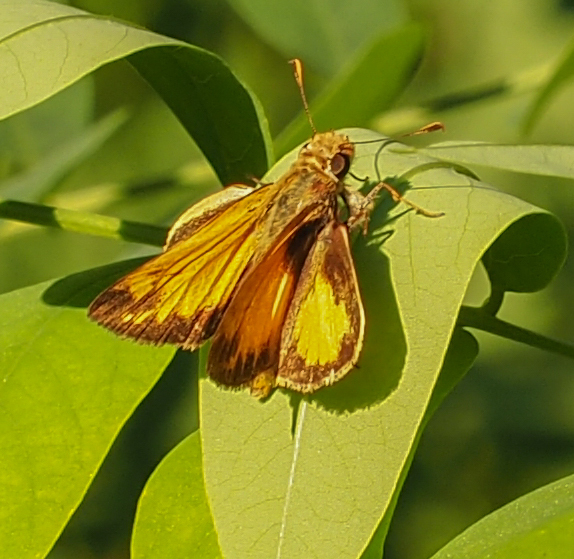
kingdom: Animalia
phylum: Arthropoda
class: Insecta
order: Lepidoptera
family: Hesperiidae
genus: Lon
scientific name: Lon zabulon
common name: Zabulon skipper
